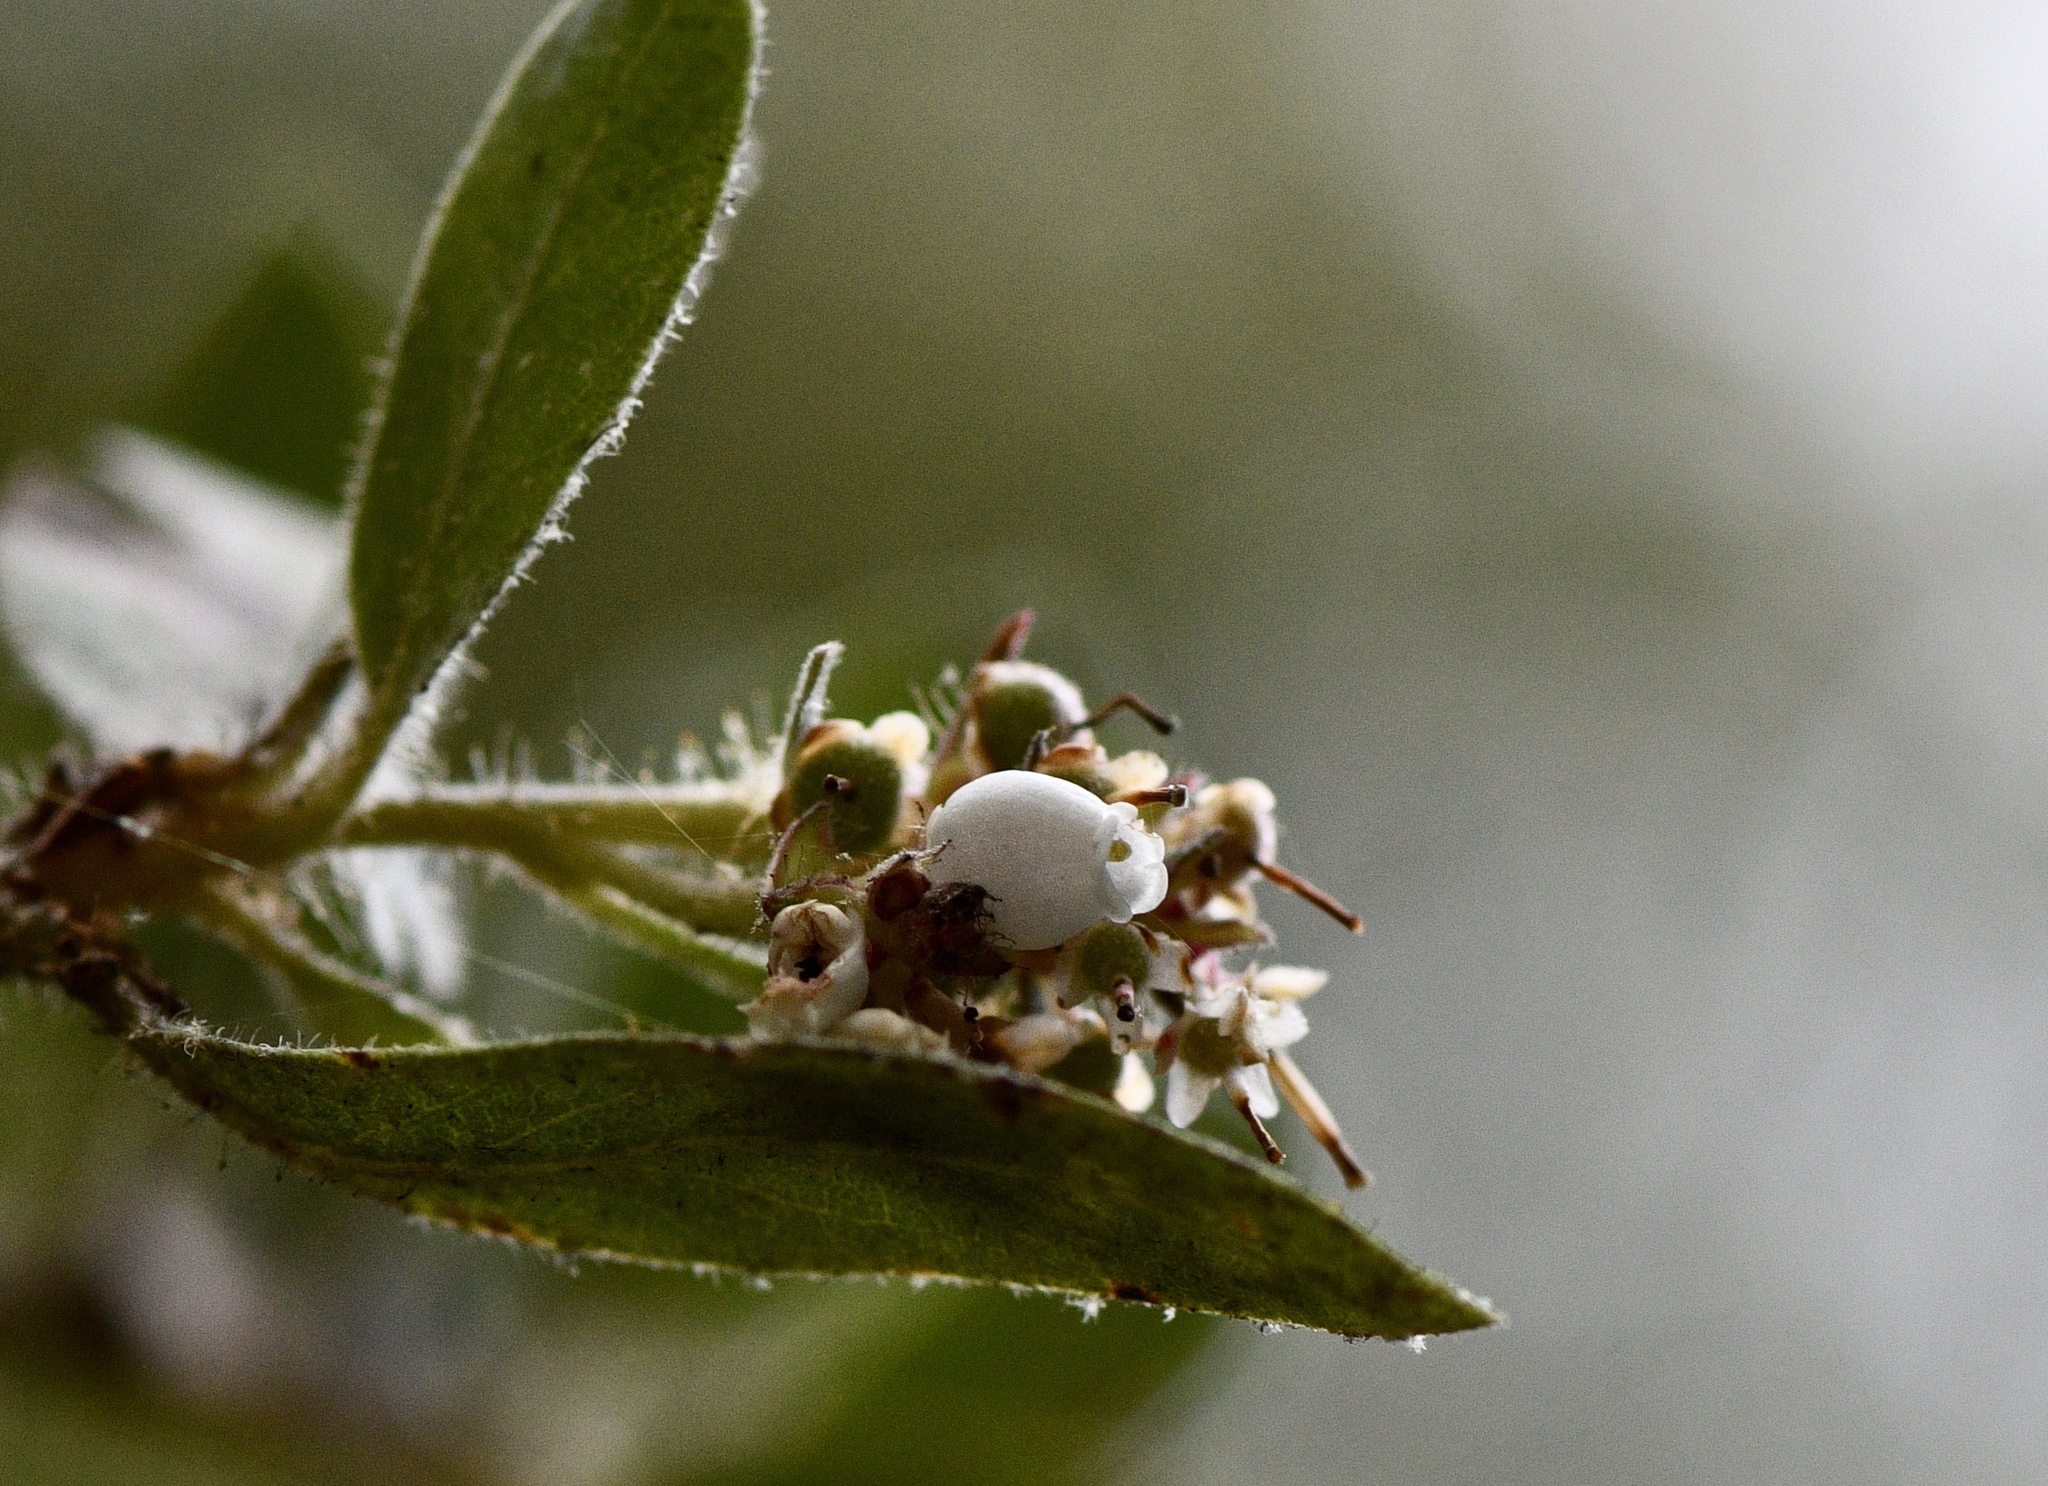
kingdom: Plantae
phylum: Tracheophyta
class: Magnoliopsida
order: Ericales
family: Ericaceae
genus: Arctostaphylos
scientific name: Arctostaphylos columbiana
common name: Bristly bearberry
